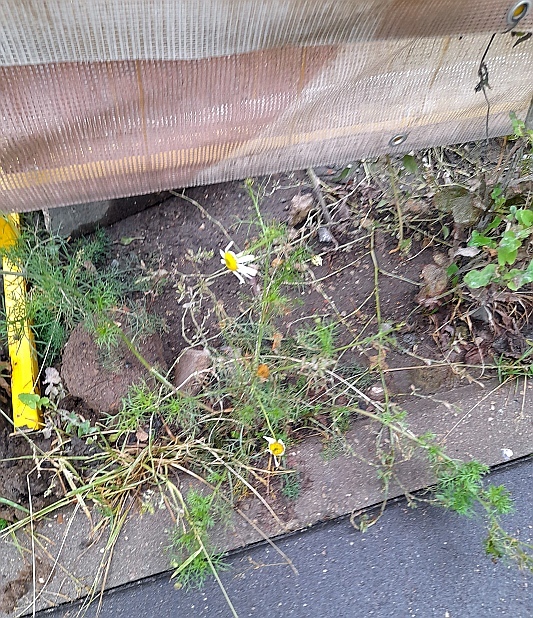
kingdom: Plantae
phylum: Tracheophyta
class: Magnoliopsida
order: Asterales
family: Asteraceae
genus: Tripleurospermum
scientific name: Tripleurospermum inodorum
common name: Scentless mayweed
